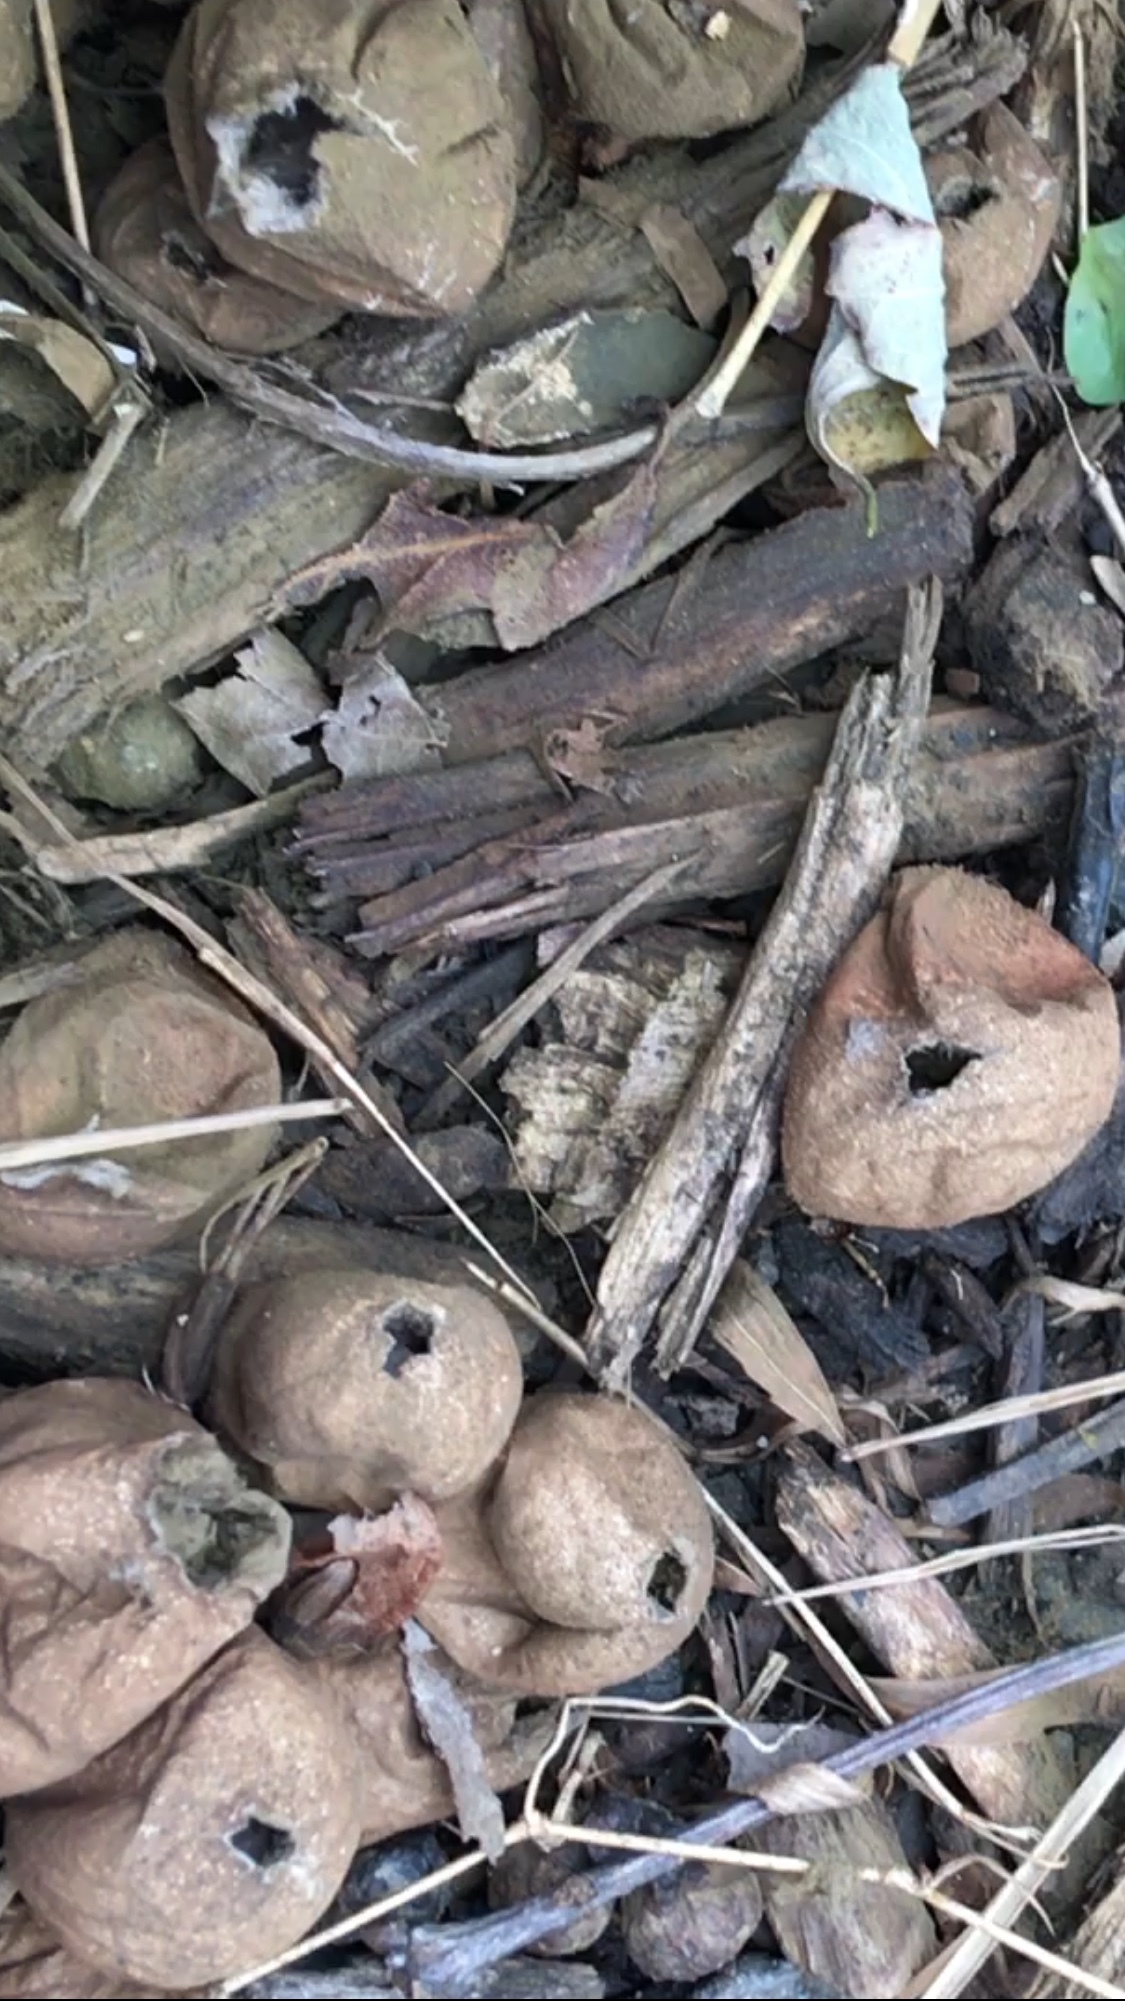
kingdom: Fungi
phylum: Basidiomycota
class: Agaricomycetes
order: Agaricales
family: Lycoperdaceae
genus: Apioperdon
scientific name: Apioperdon pyriforme
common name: Pear-shaped puffball
